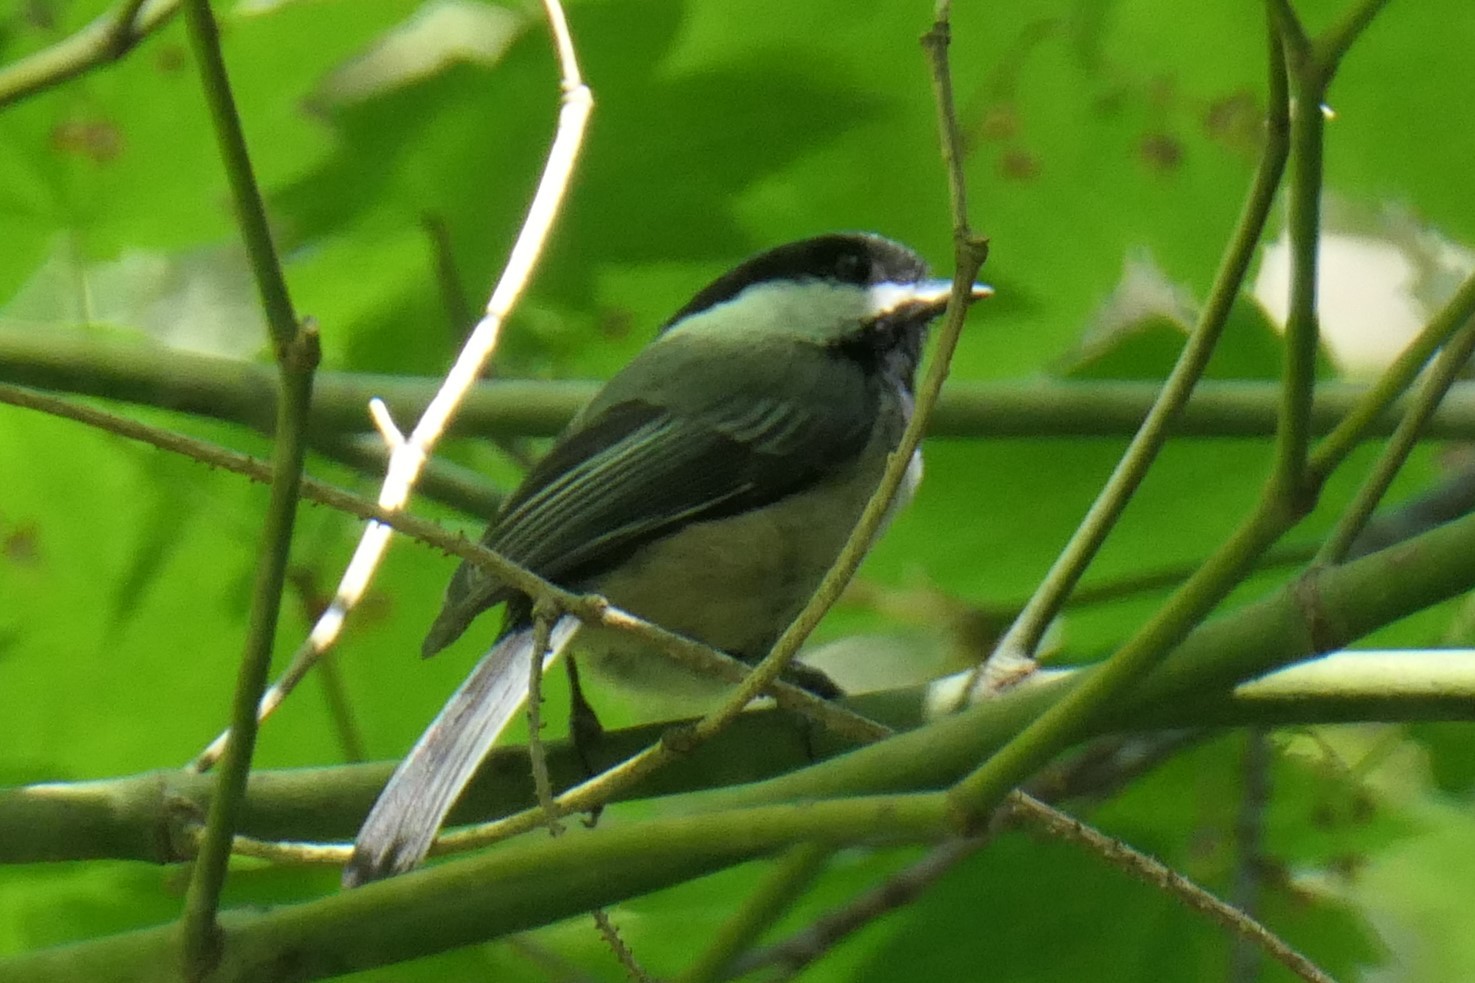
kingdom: Animalia
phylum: Chordata
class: Aves
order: Passeriformes
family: Paridae
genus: Poecile
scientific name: Poecile atricapillus
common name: Black-capped chickadee
